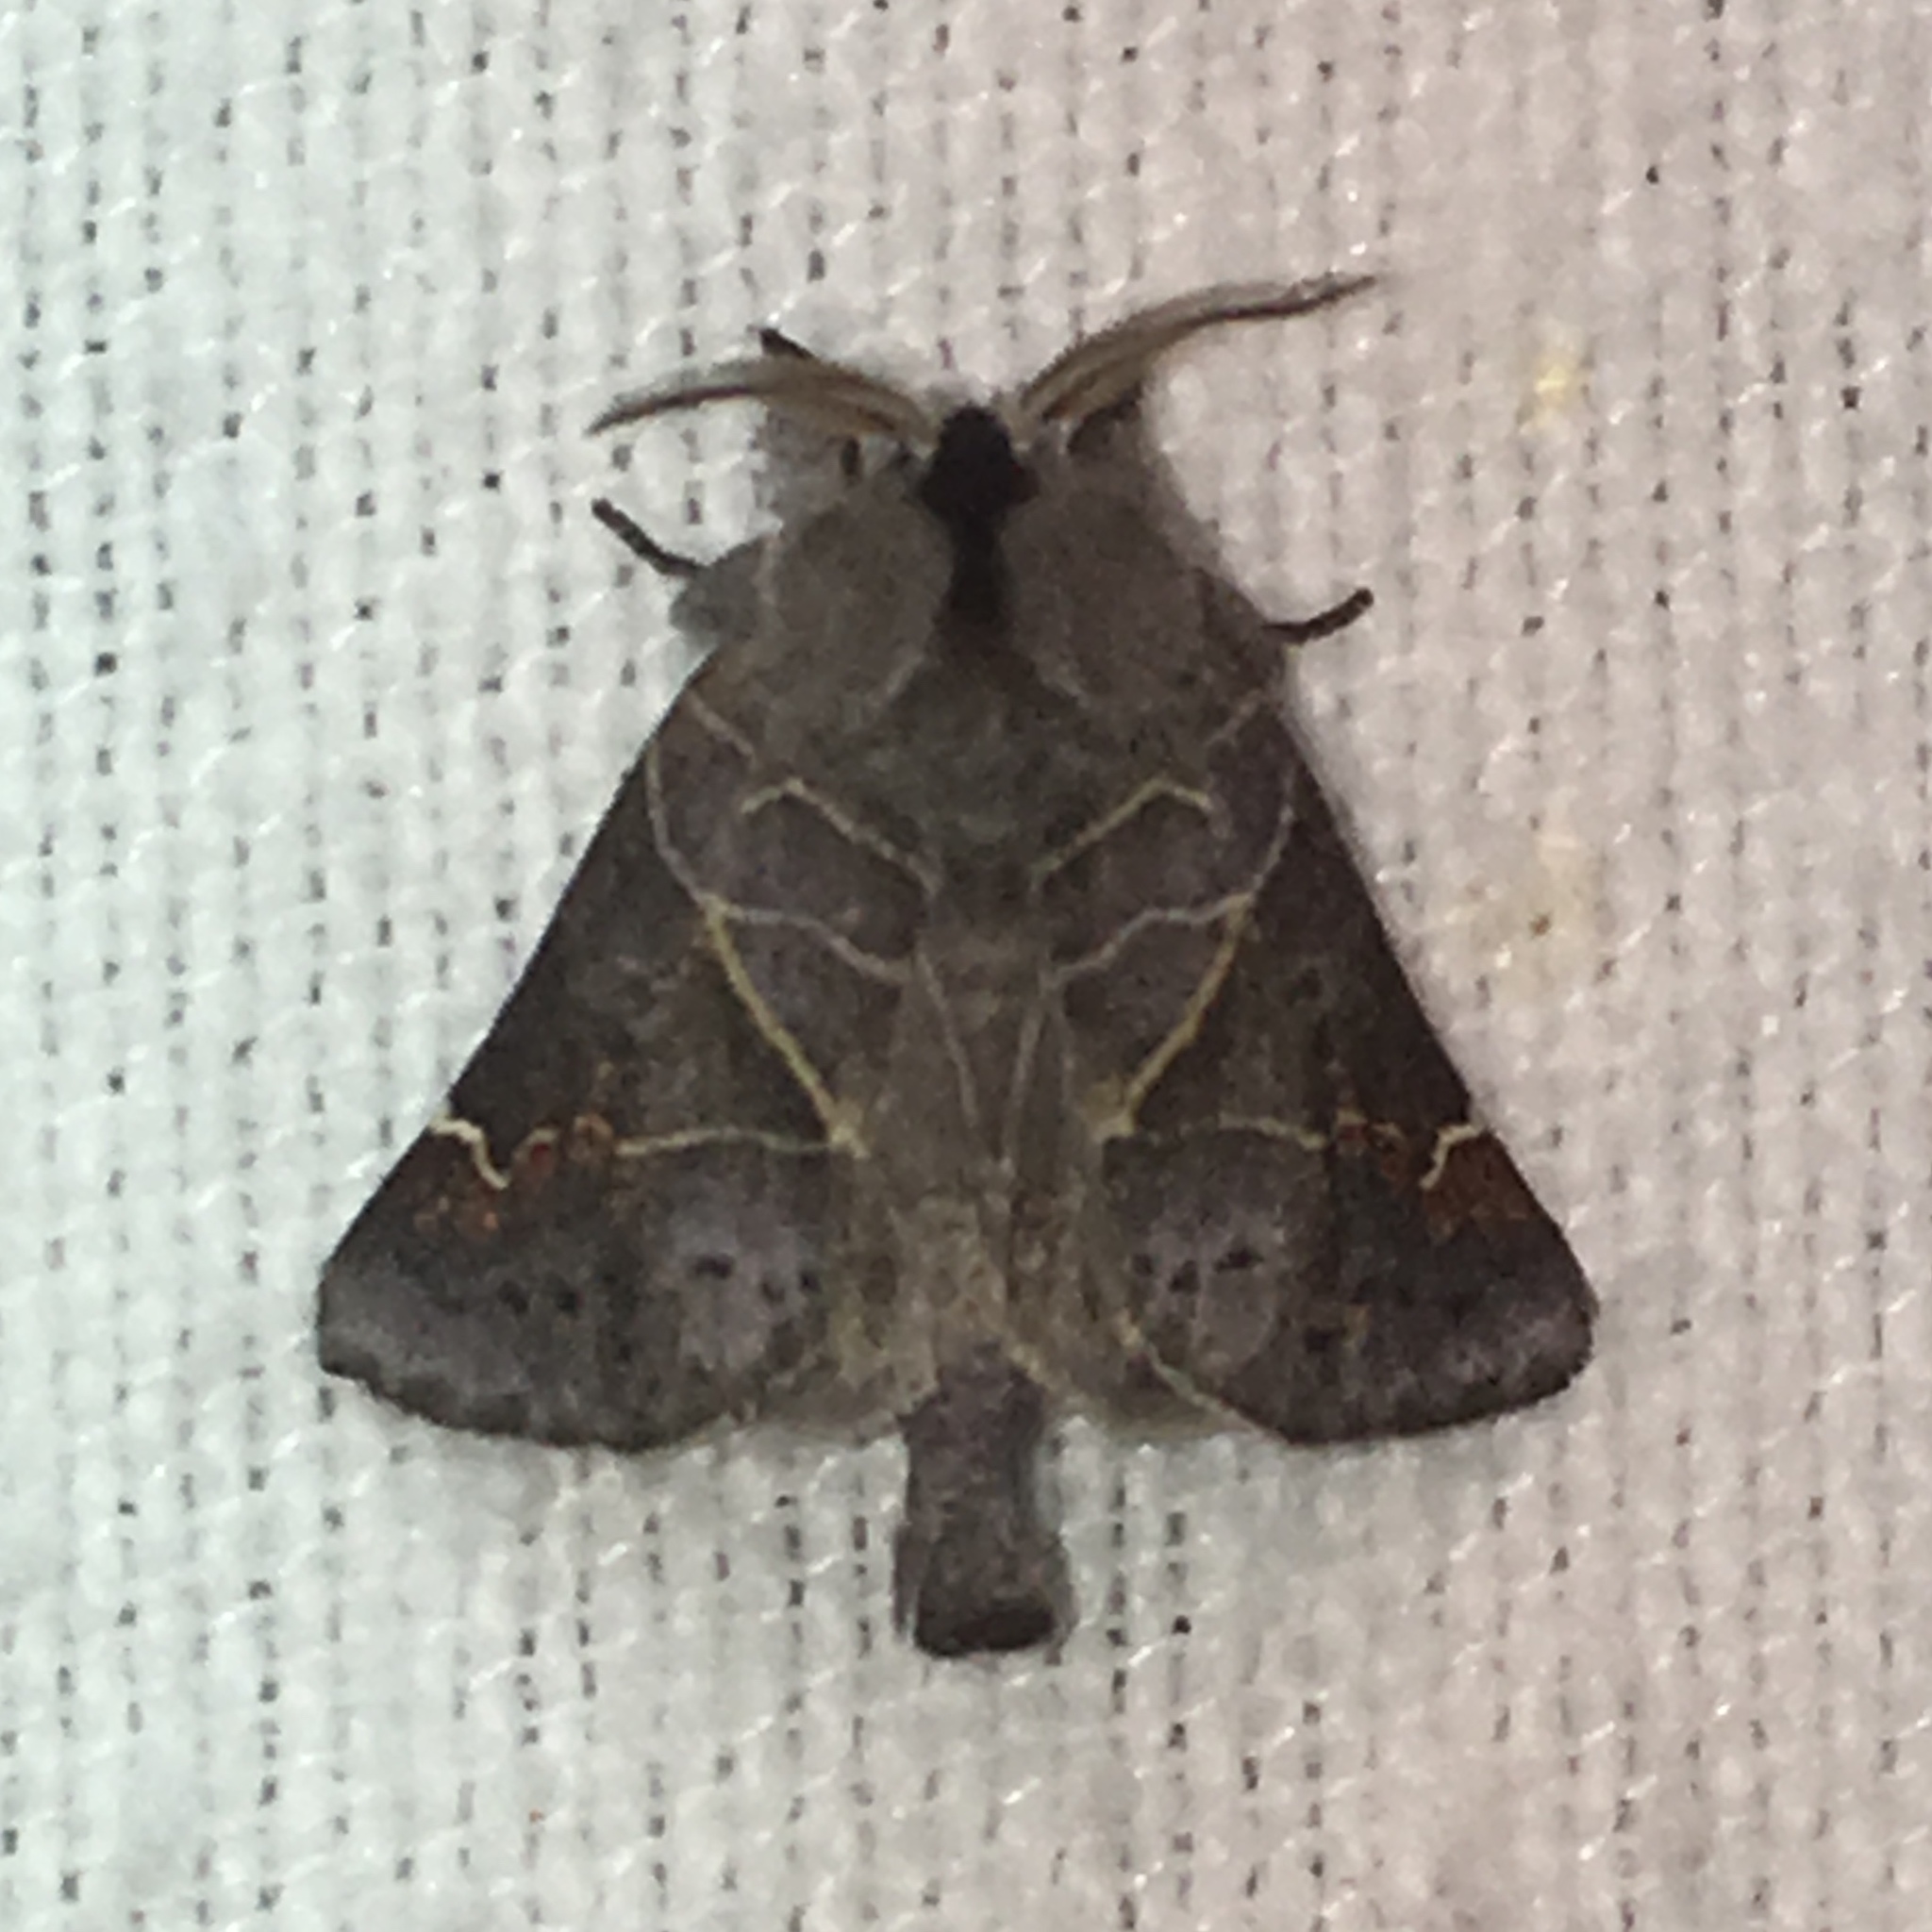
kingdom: Animalia
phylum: Arthropoda
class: Insecta
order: Lepidoptera
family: Notodontidae
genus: Clostera
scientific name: Clostera apicalis
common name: Apical prominent
